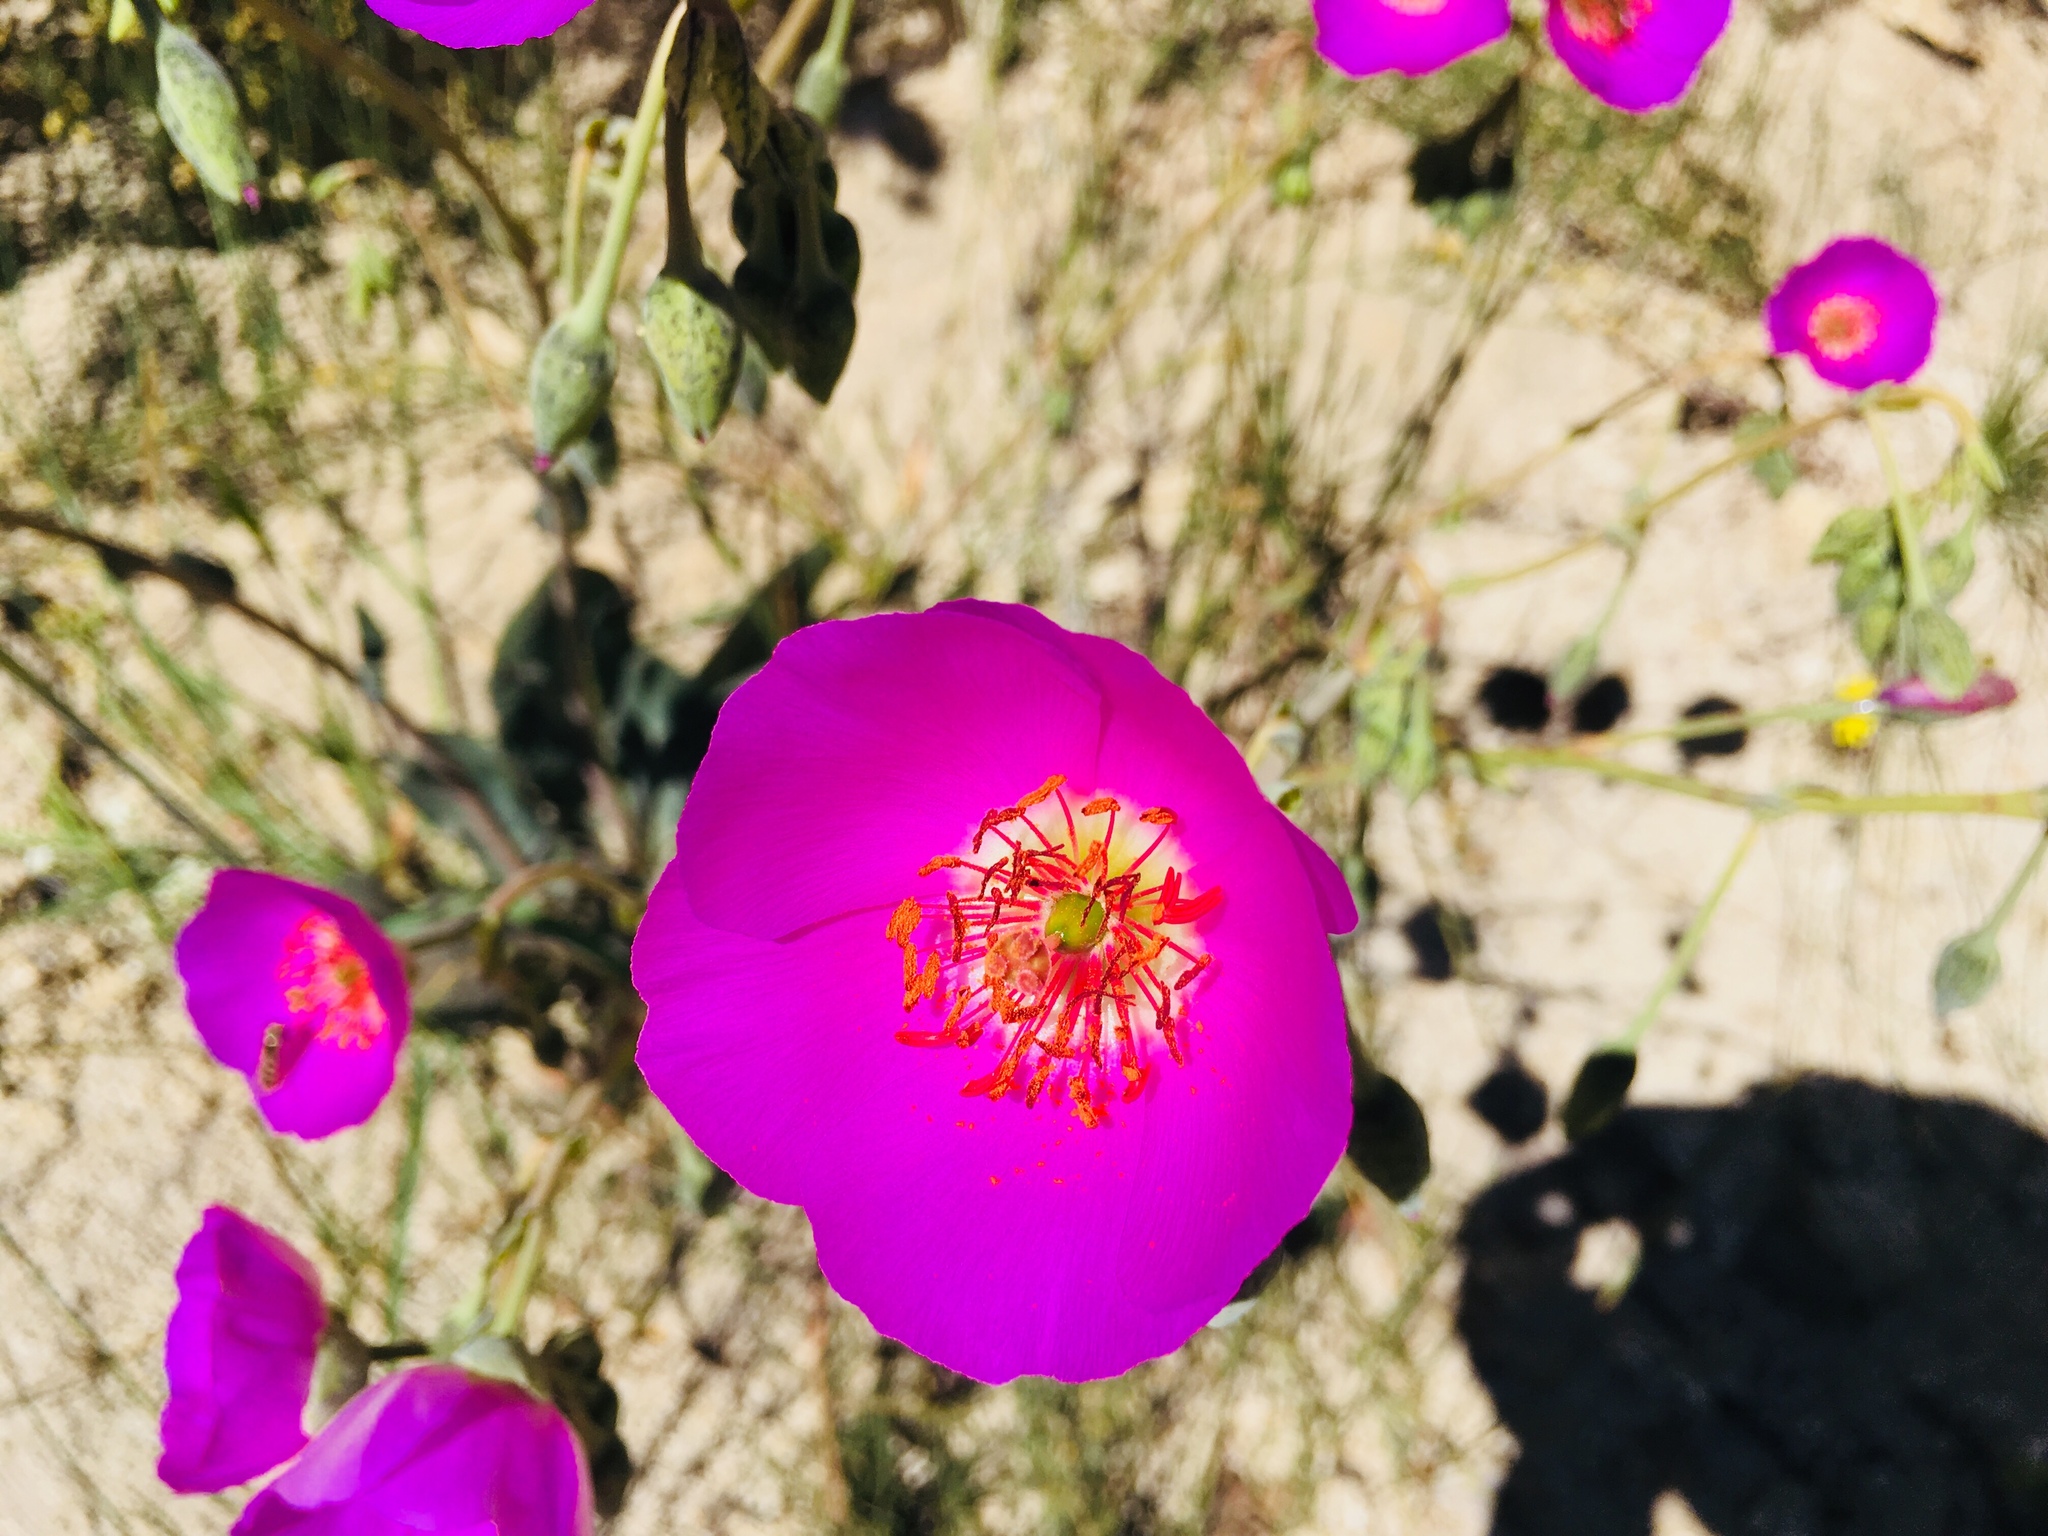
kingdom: Plantae
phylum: Tracheophyta
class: Magnoliopsida
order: Caryophyllales
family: Montiaceae
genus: Cistanthe
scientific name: Cistanthe grandiflora
